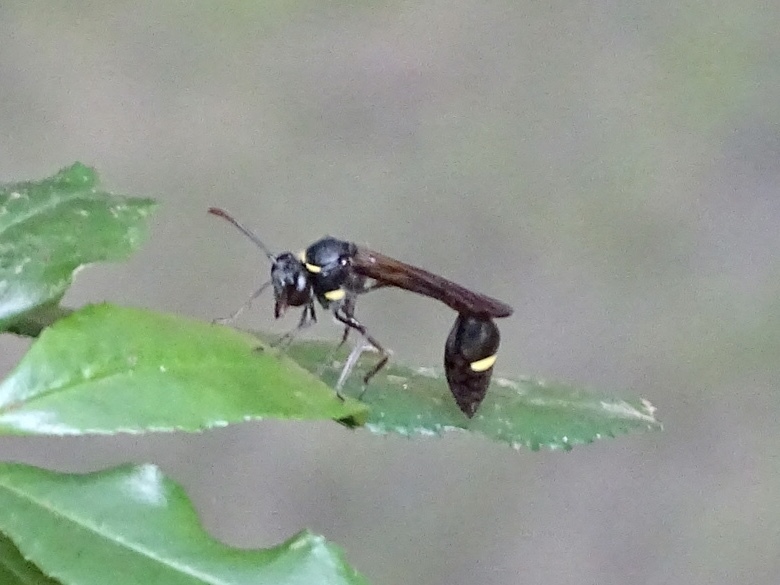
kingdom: Animalia
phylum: Arthropoda
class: Insecta
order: Hymenoptera
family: Vespidae
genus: Eustenogaster
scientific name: Eustenogaster nigra
